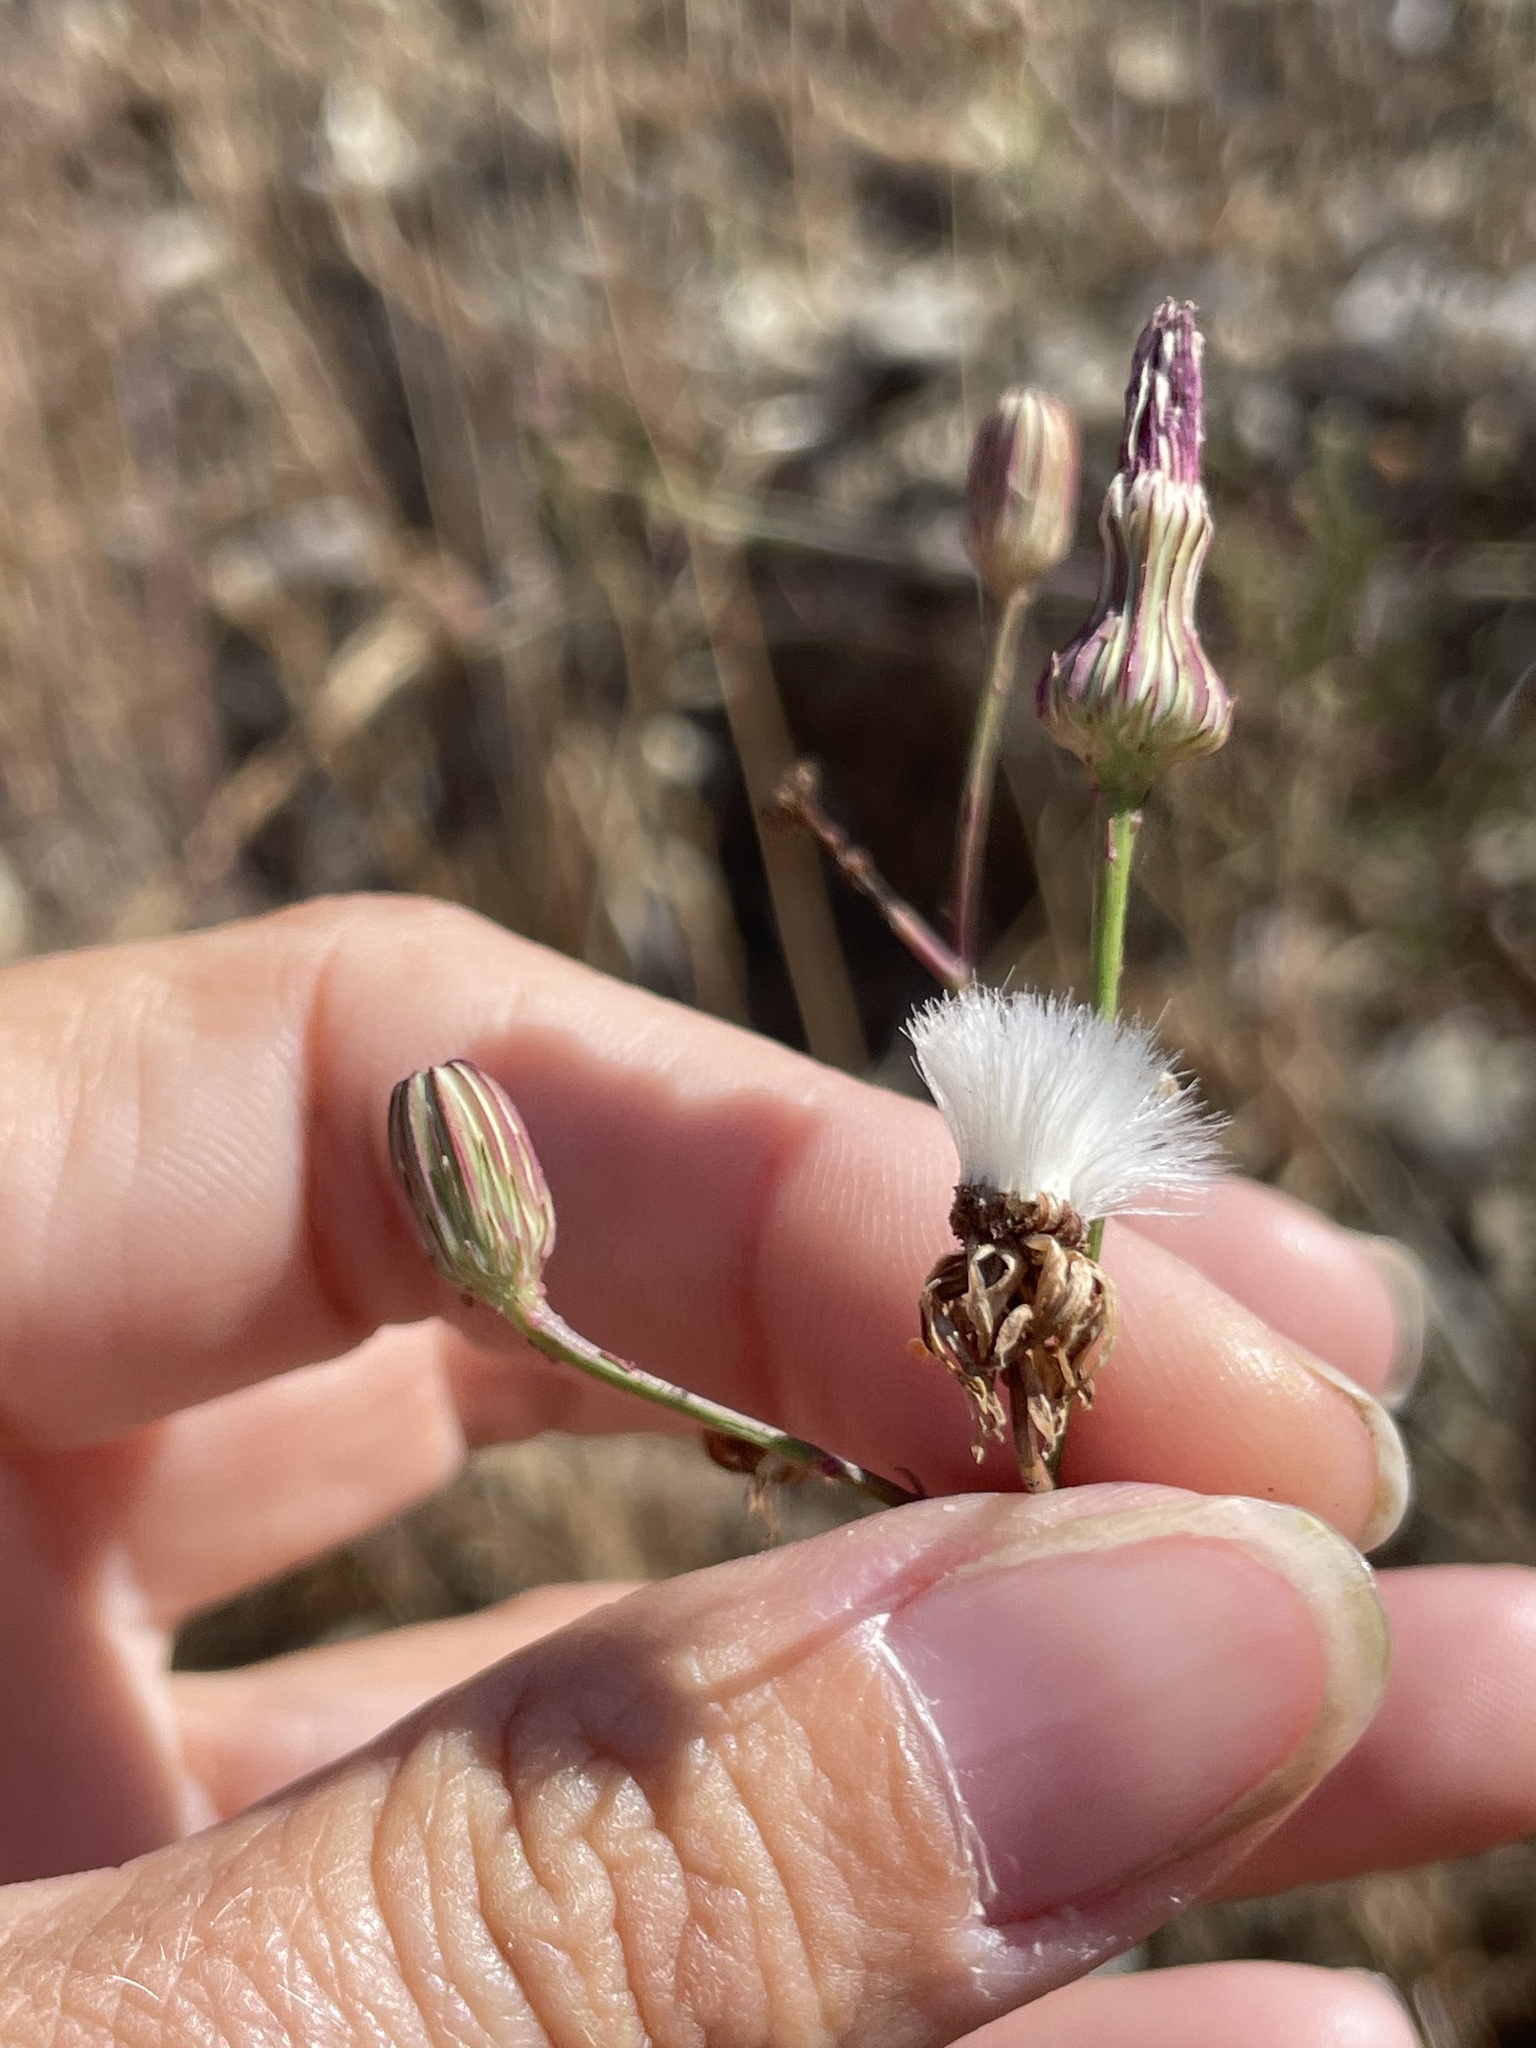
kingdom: Plantae
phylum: Tracheophyta
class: Magnoliopsida
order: Asterales
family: Asteraceae
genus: Malacothrix
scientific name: Malacothrix saxatilis
